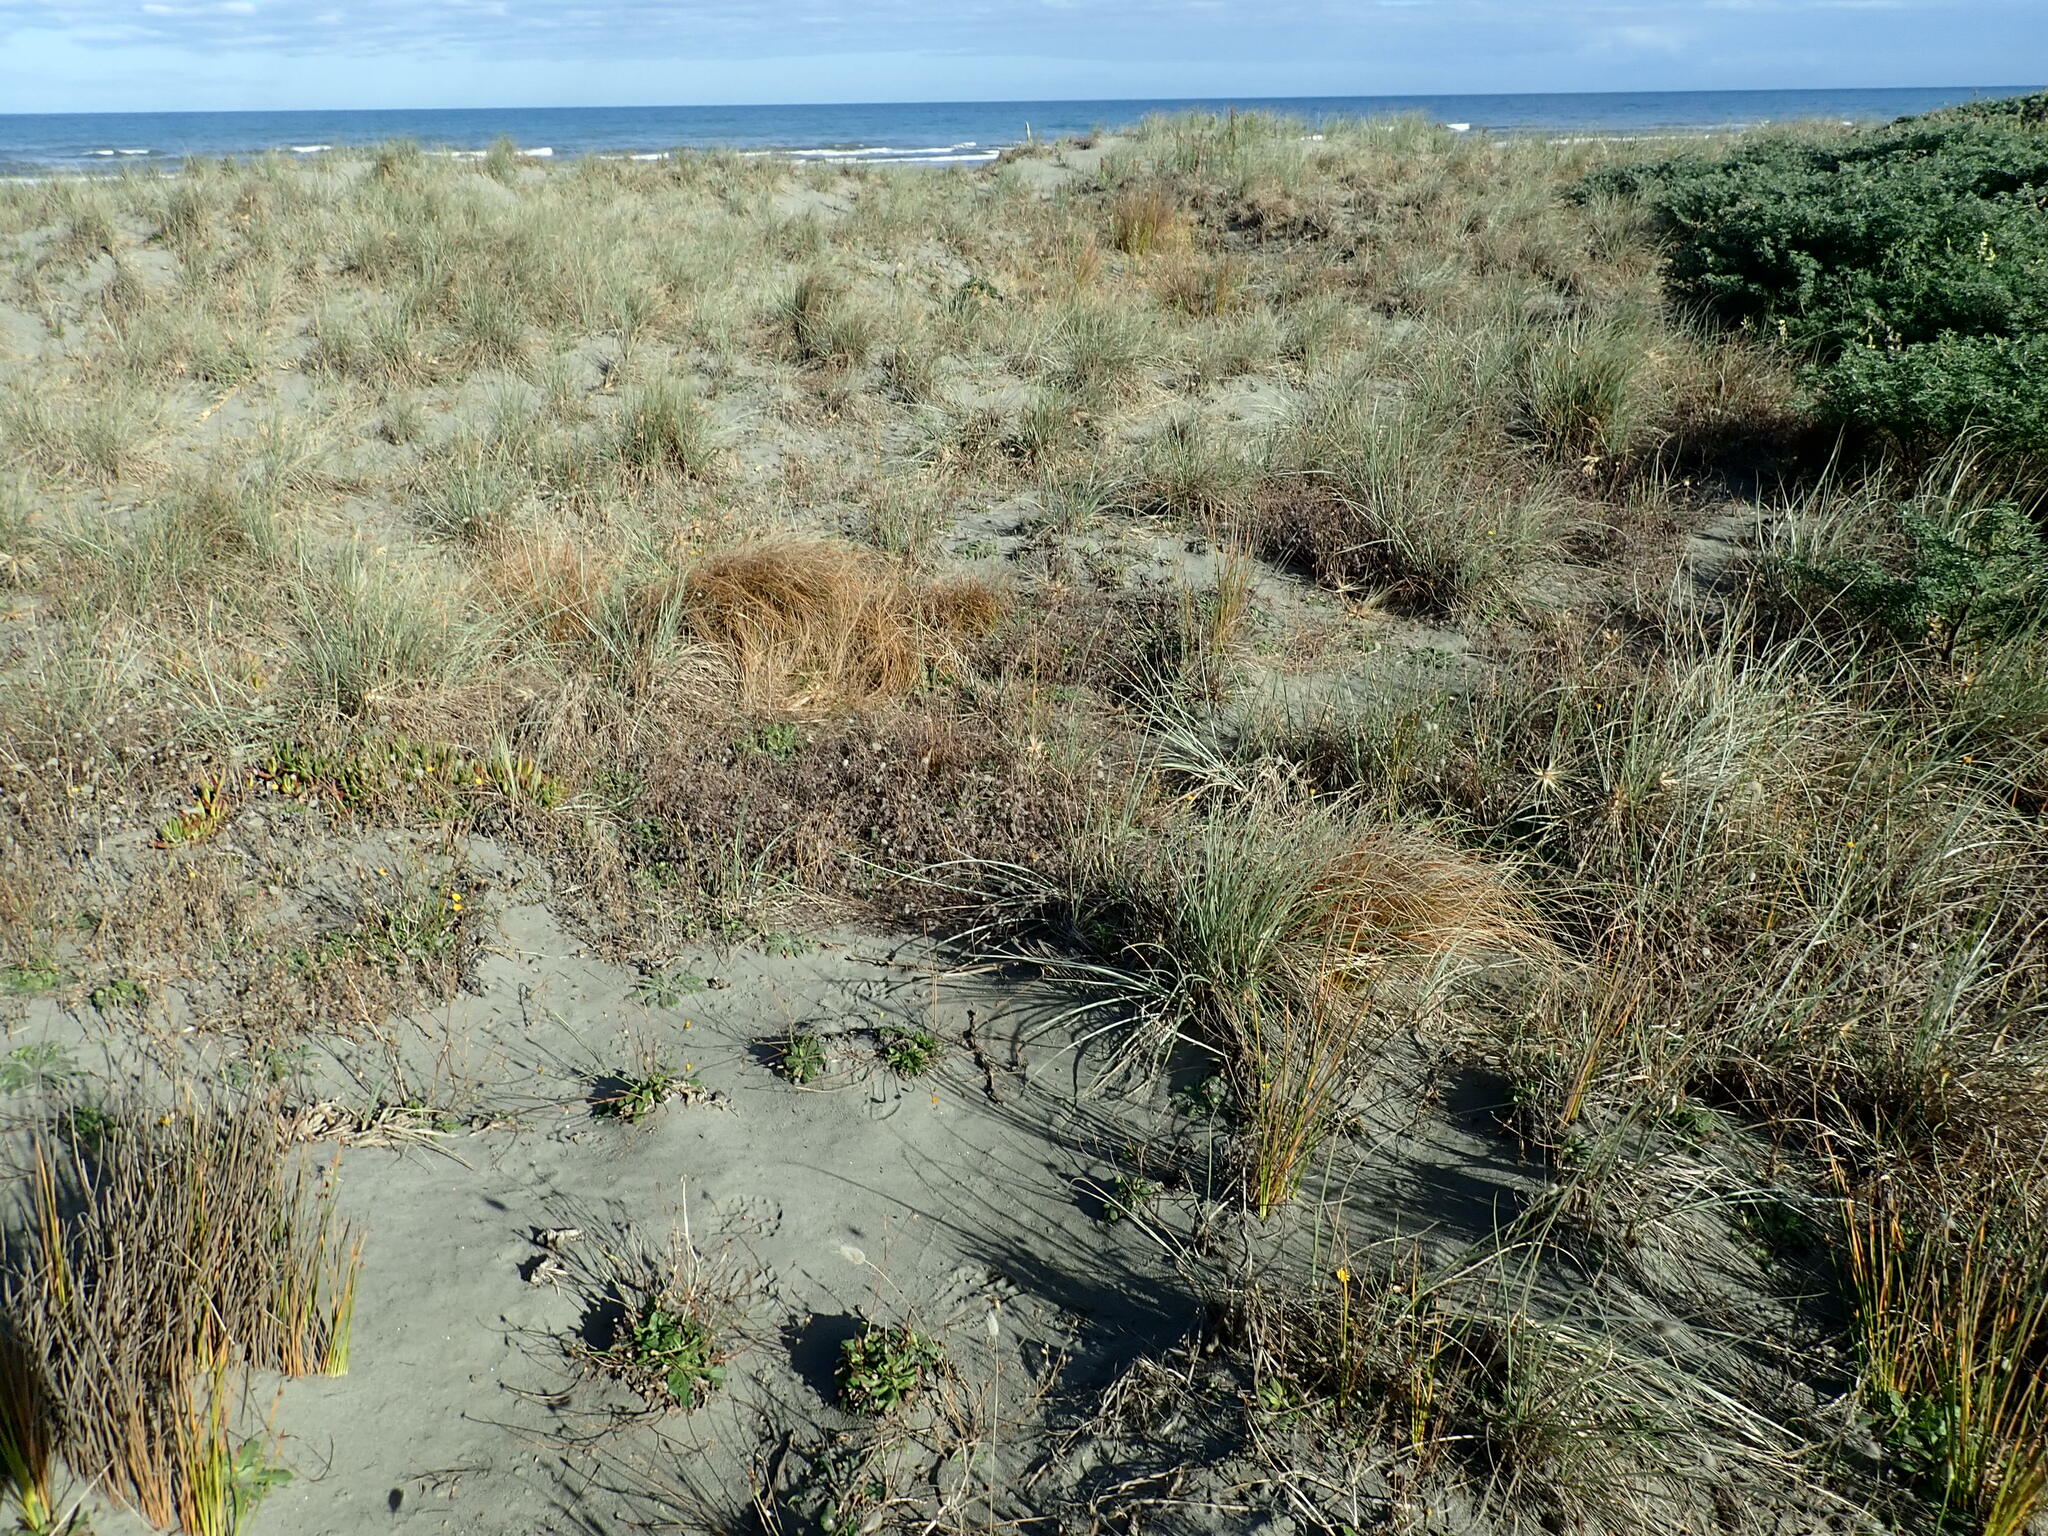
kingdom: Plantae
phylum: Tracheophyta
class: Magnoliopsida
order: Fabales
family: Fabaceae
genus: Trifolium
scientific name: Trifolium arvense
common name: Hare's-foot clover
